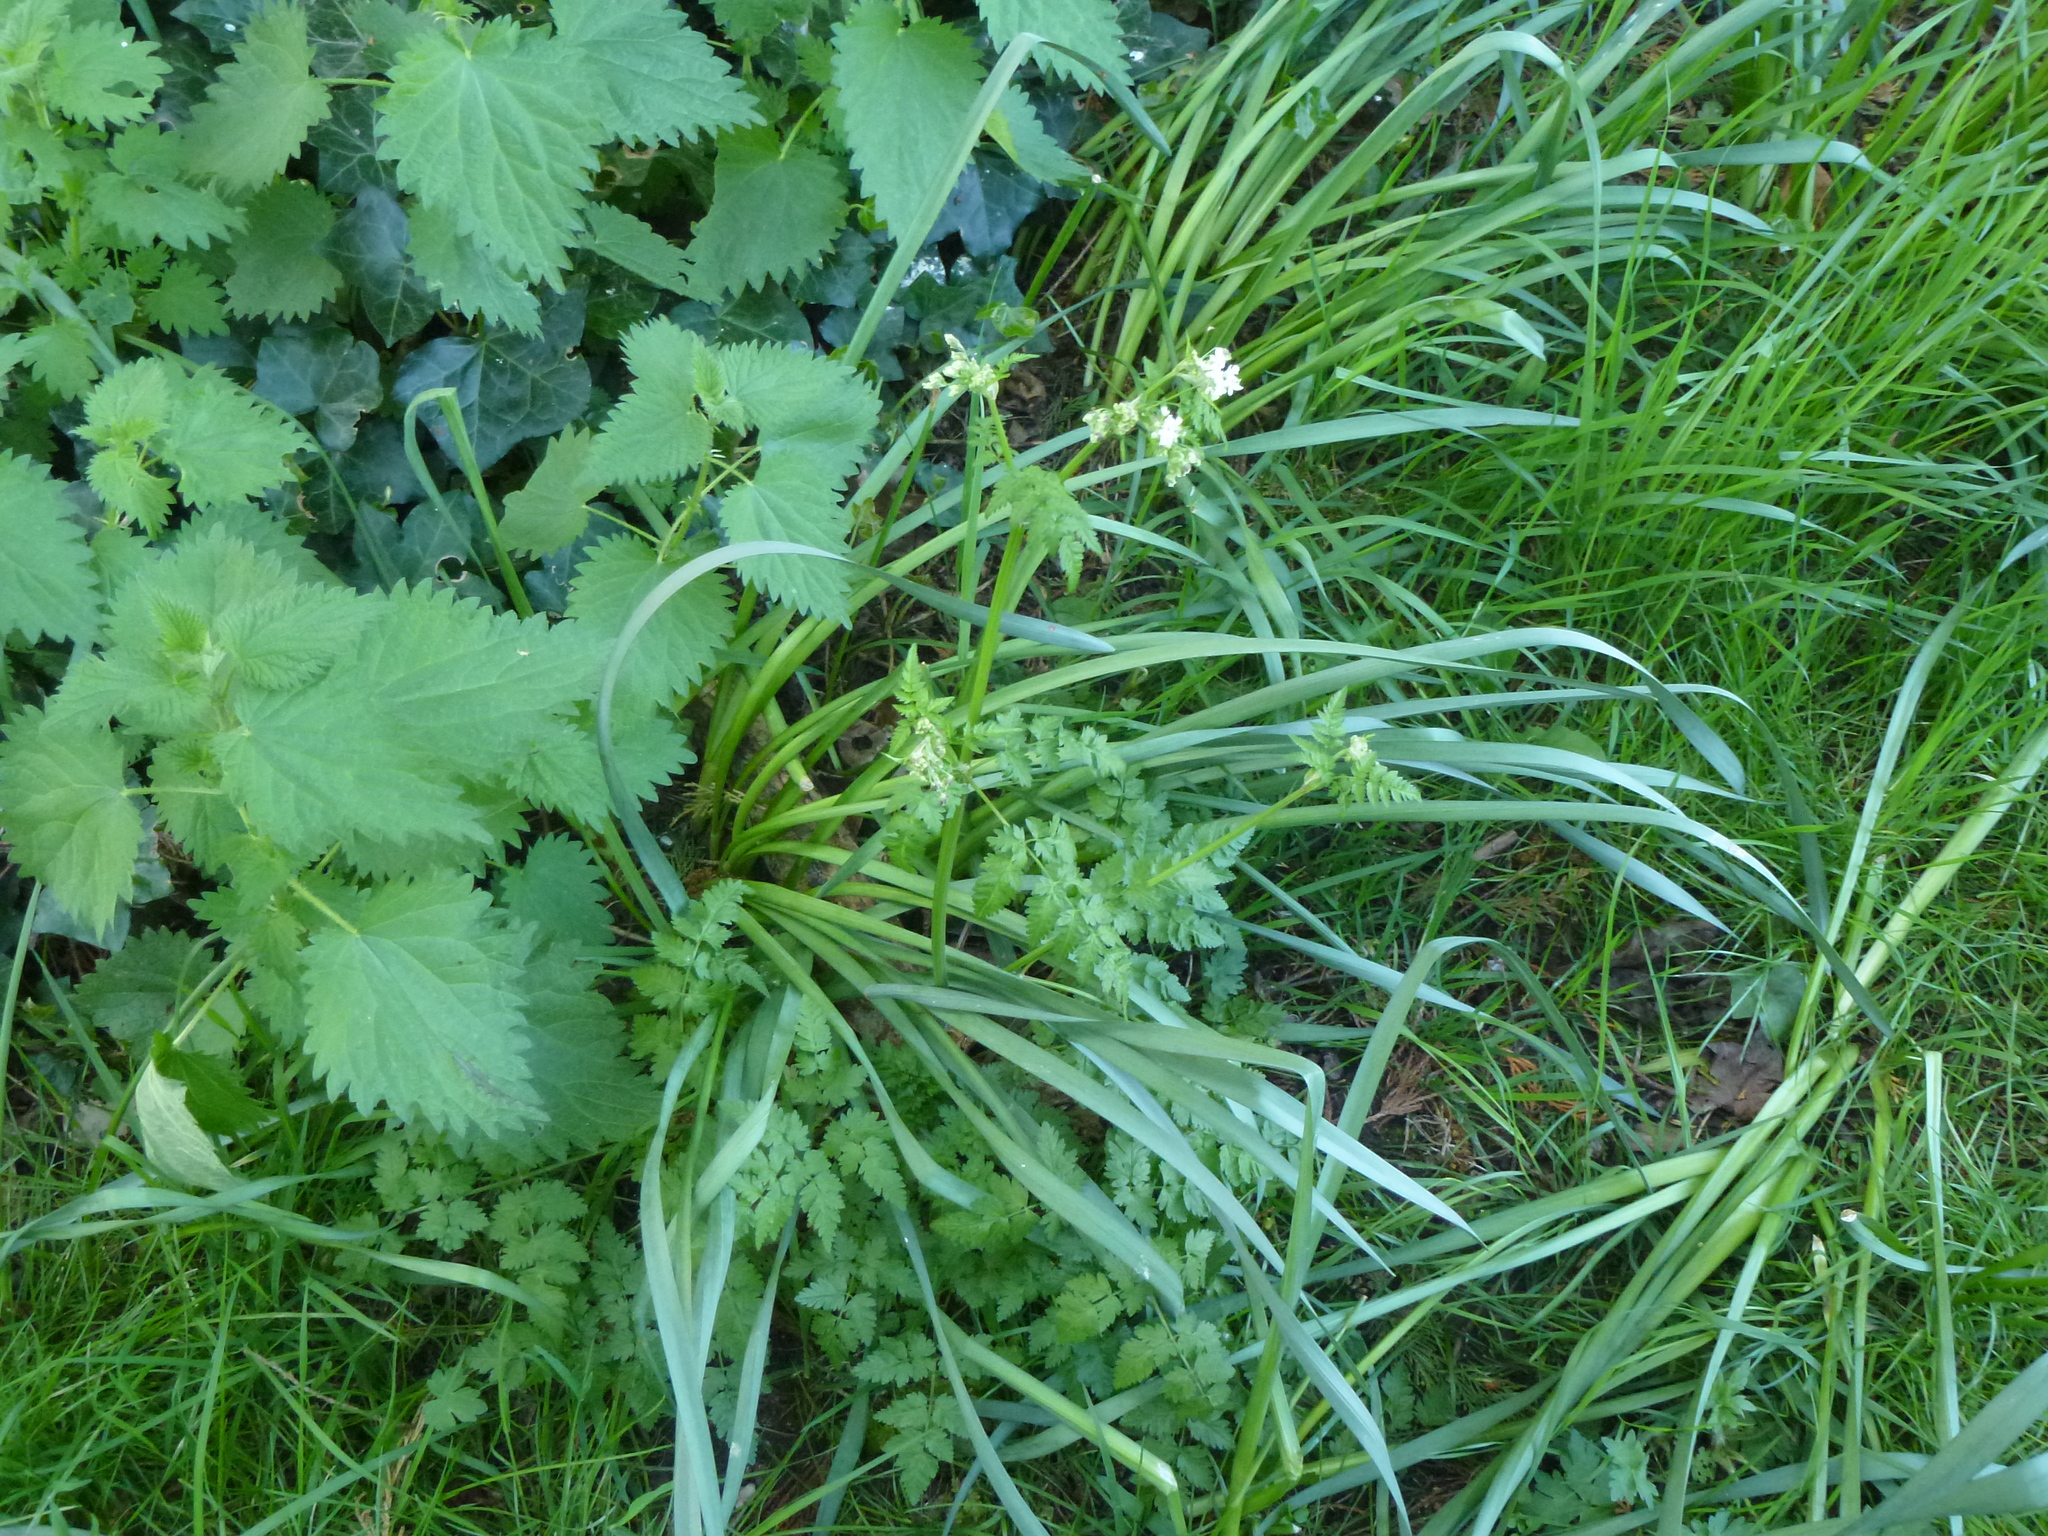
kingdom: Plantae
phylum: Tracheophyta
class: Magnoliopsida
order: Apiales
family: Apiaceae
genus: Anthriscus
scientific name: Anthriscus sylvestris
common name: Cow parsley
